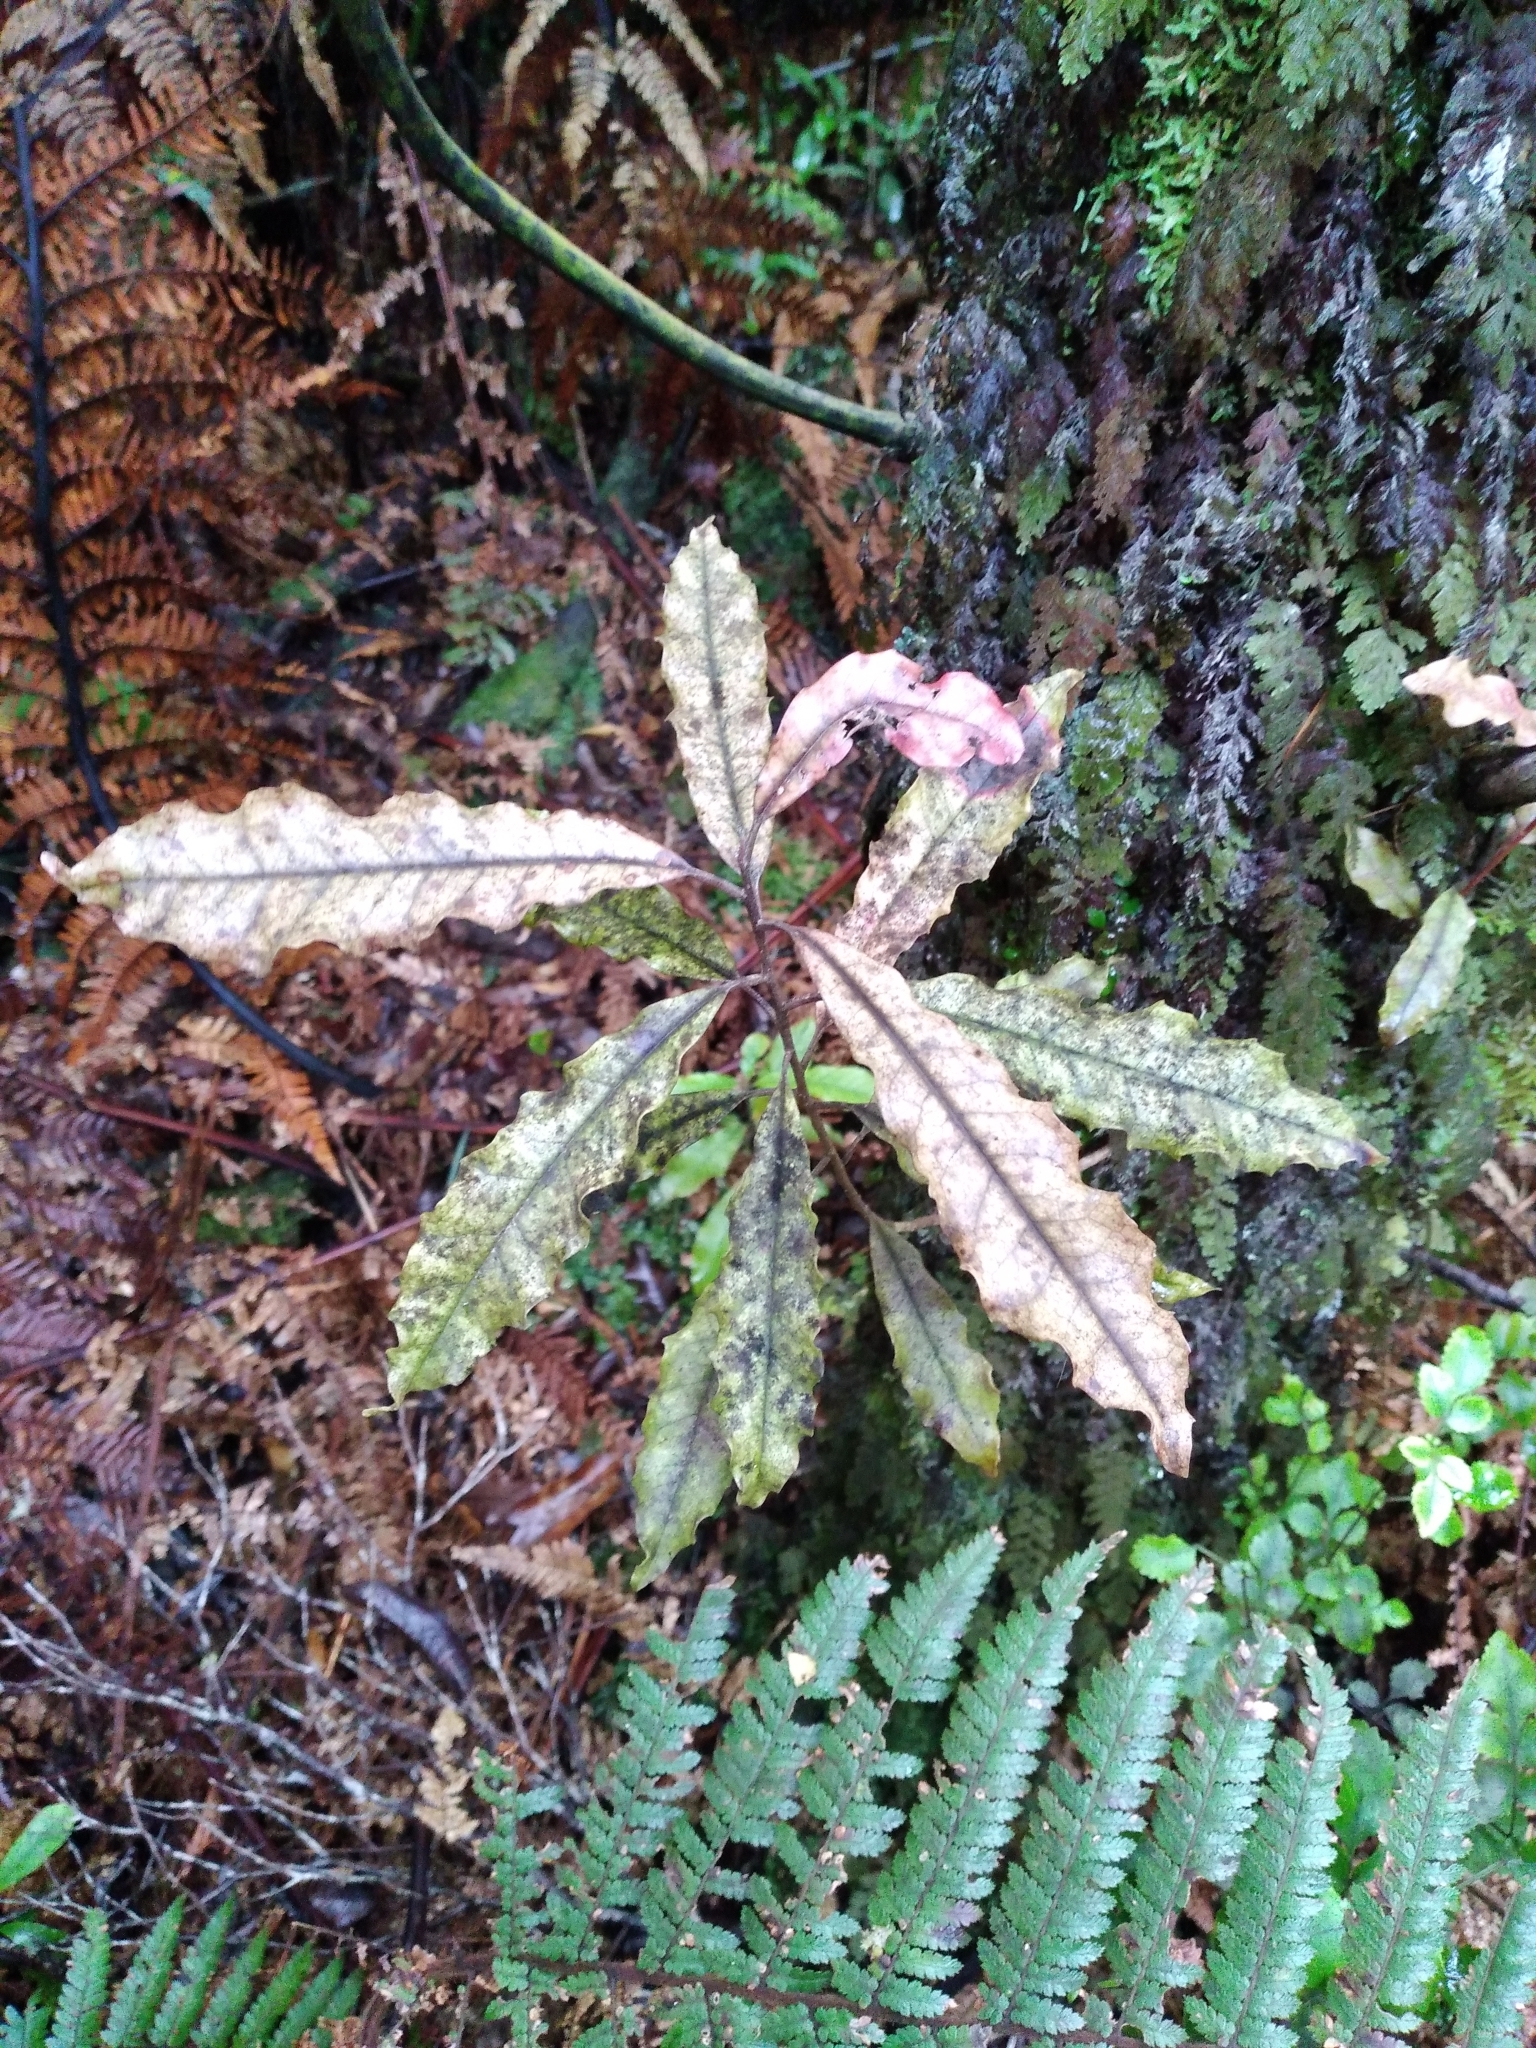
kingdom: Plantae
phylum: Tracheophyta
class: Magnoliopsida
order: Paracryphiales
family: Paracryphiaceae
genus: Quintinia
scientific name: Quintinia serrata
